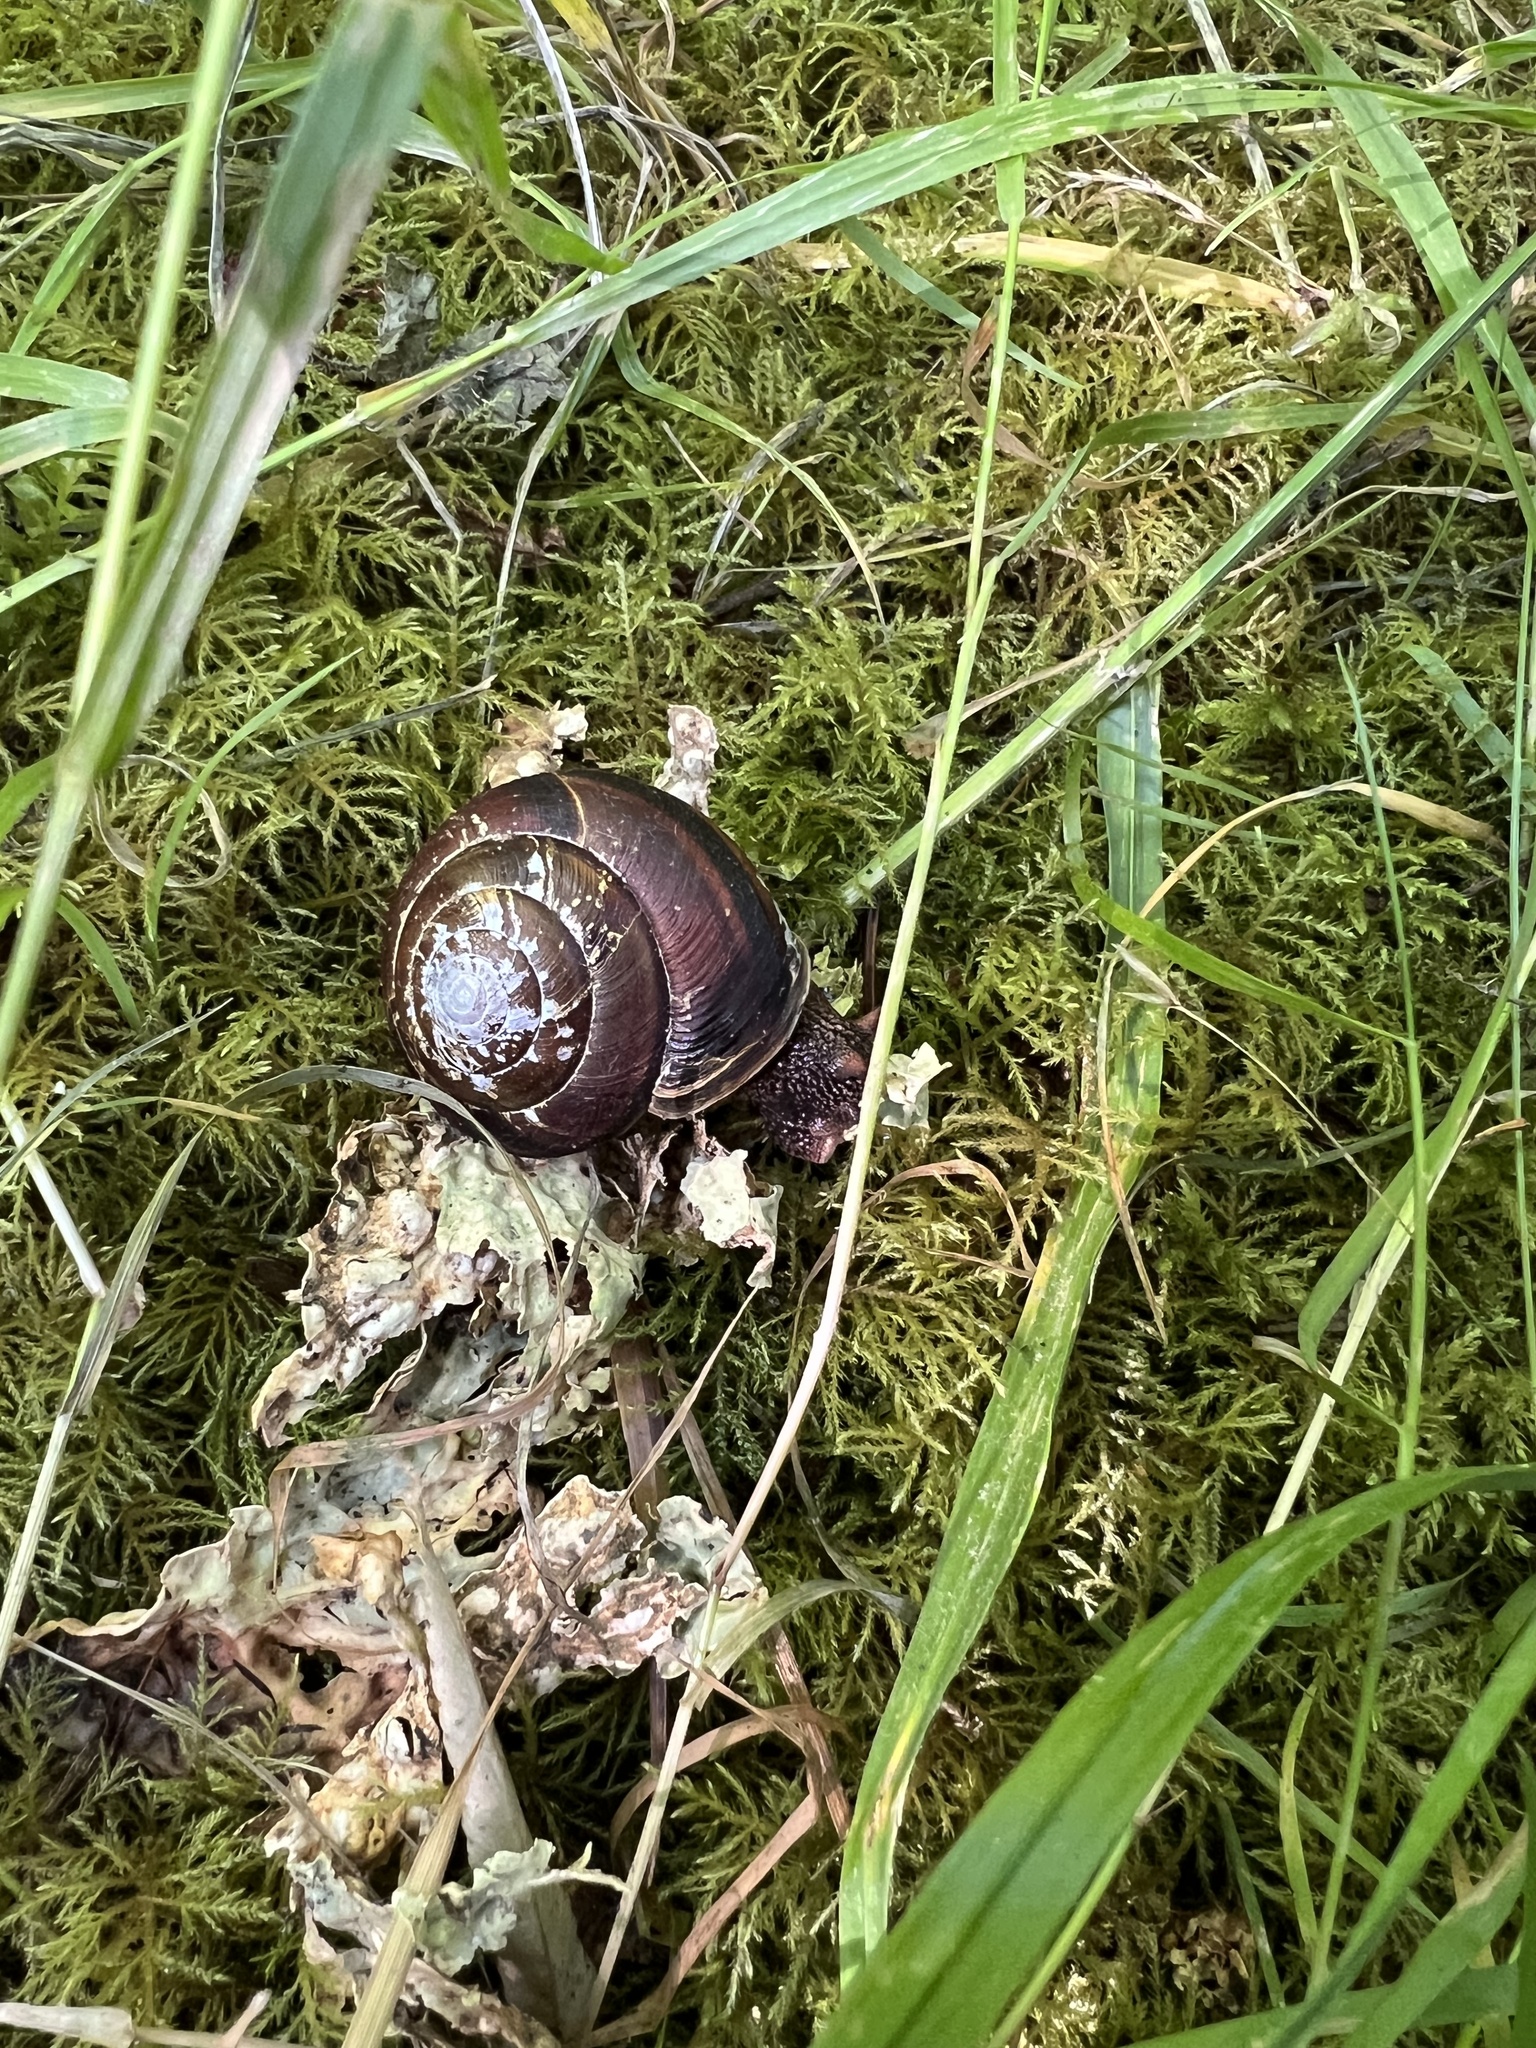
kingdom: Animalia
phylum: Mollusca
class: Gastropoda
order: Stylommatophora
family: Xanthonychidae
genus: Monadenia
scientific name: Monadenia fidelis
